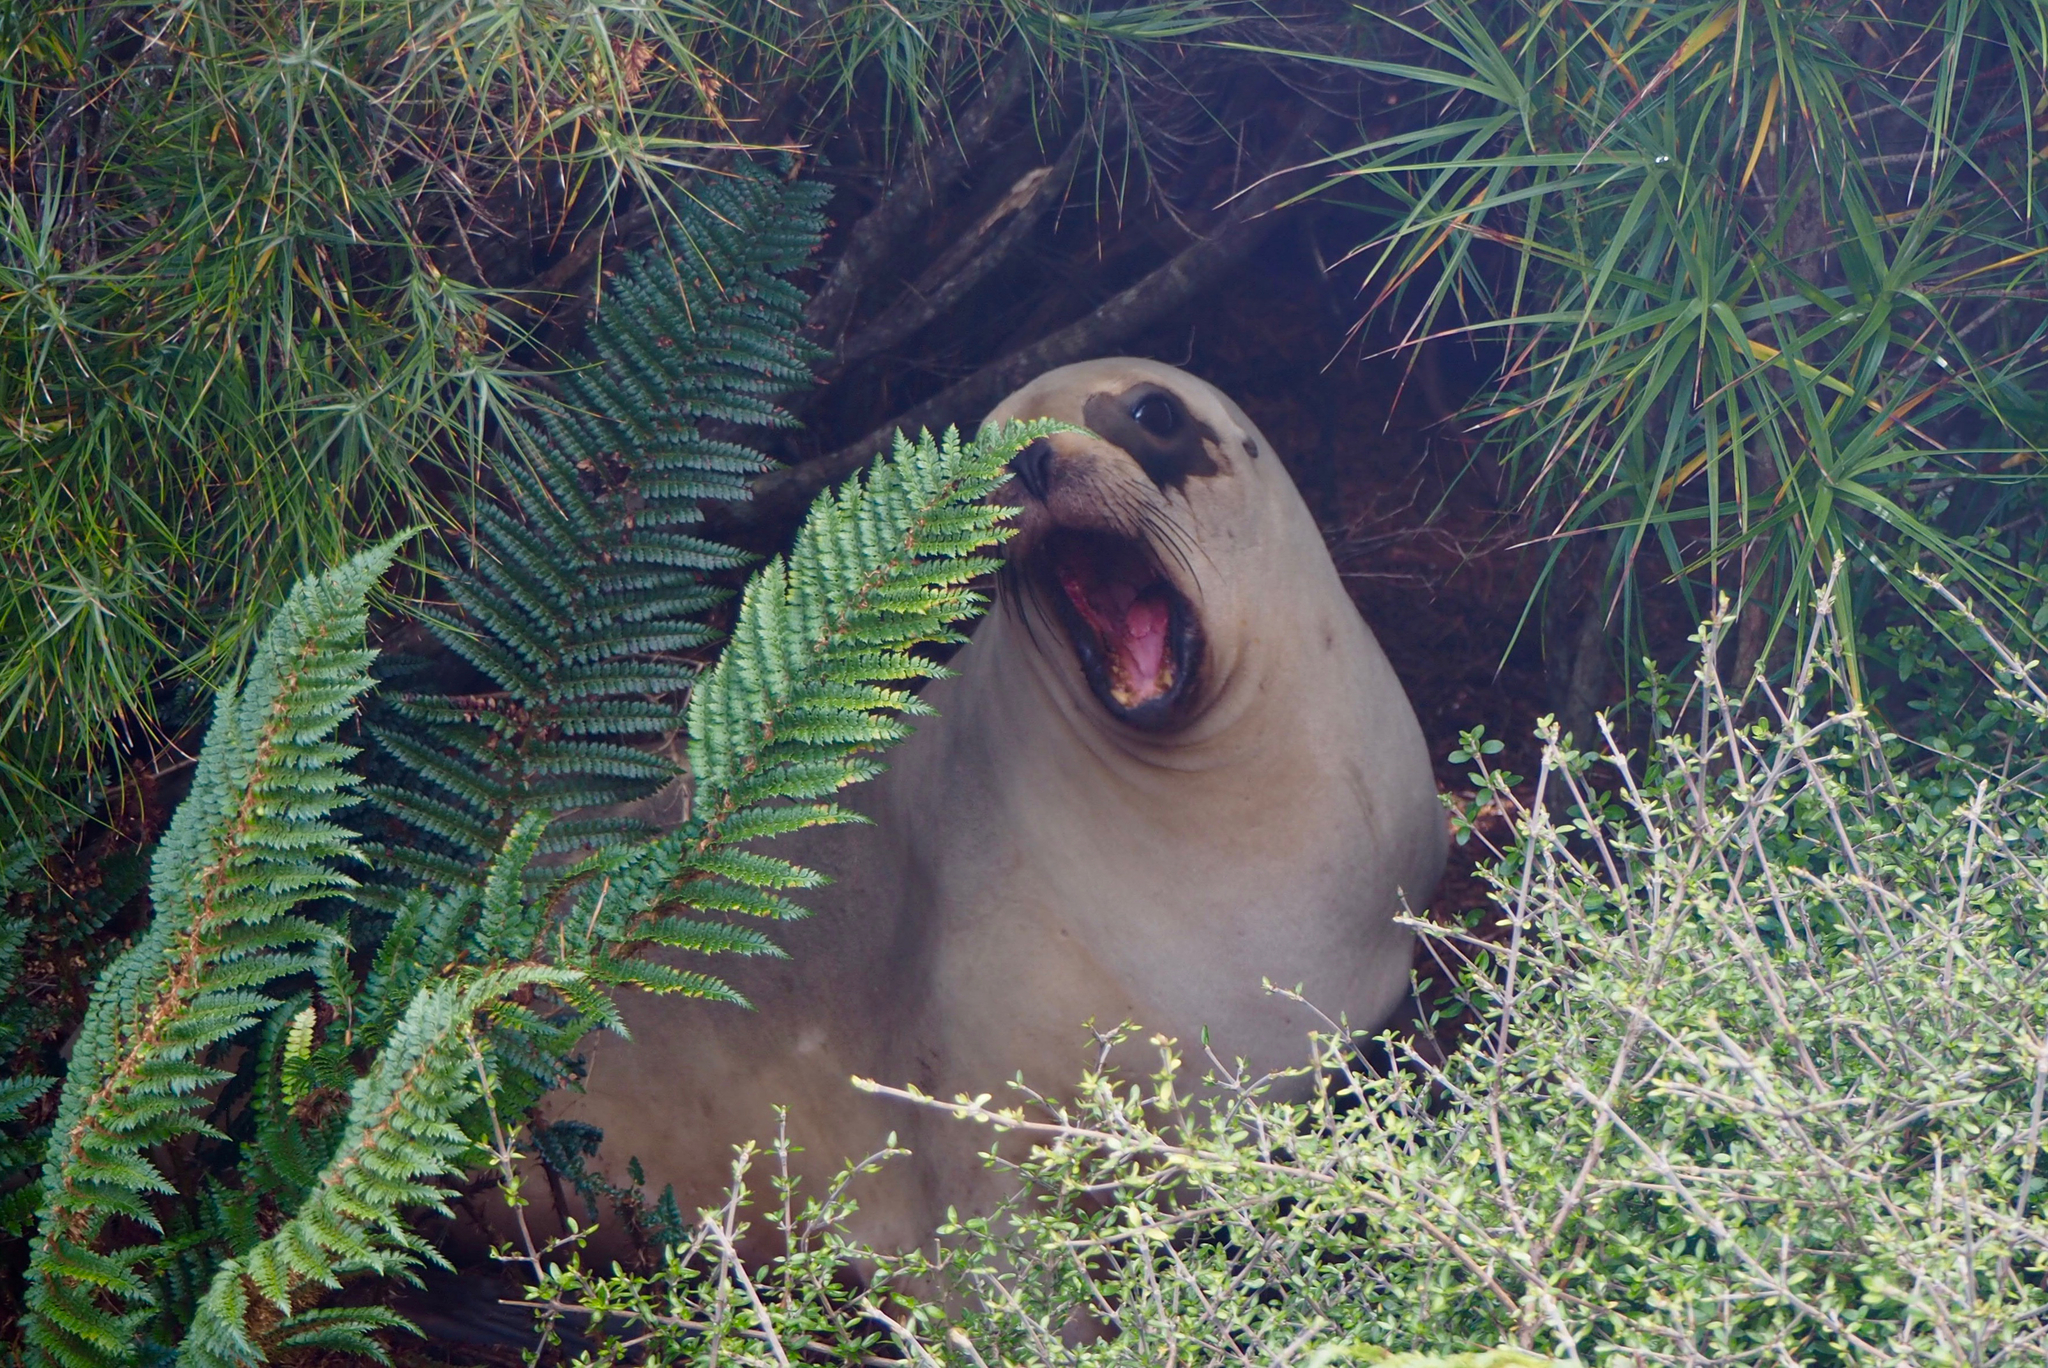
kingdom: Animalia
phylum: Chordata
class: Mammalia
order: Carnivora
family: Otariidae
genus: Phocarctos
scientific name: Phocarctos hookeri
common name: New zealand sea lion
